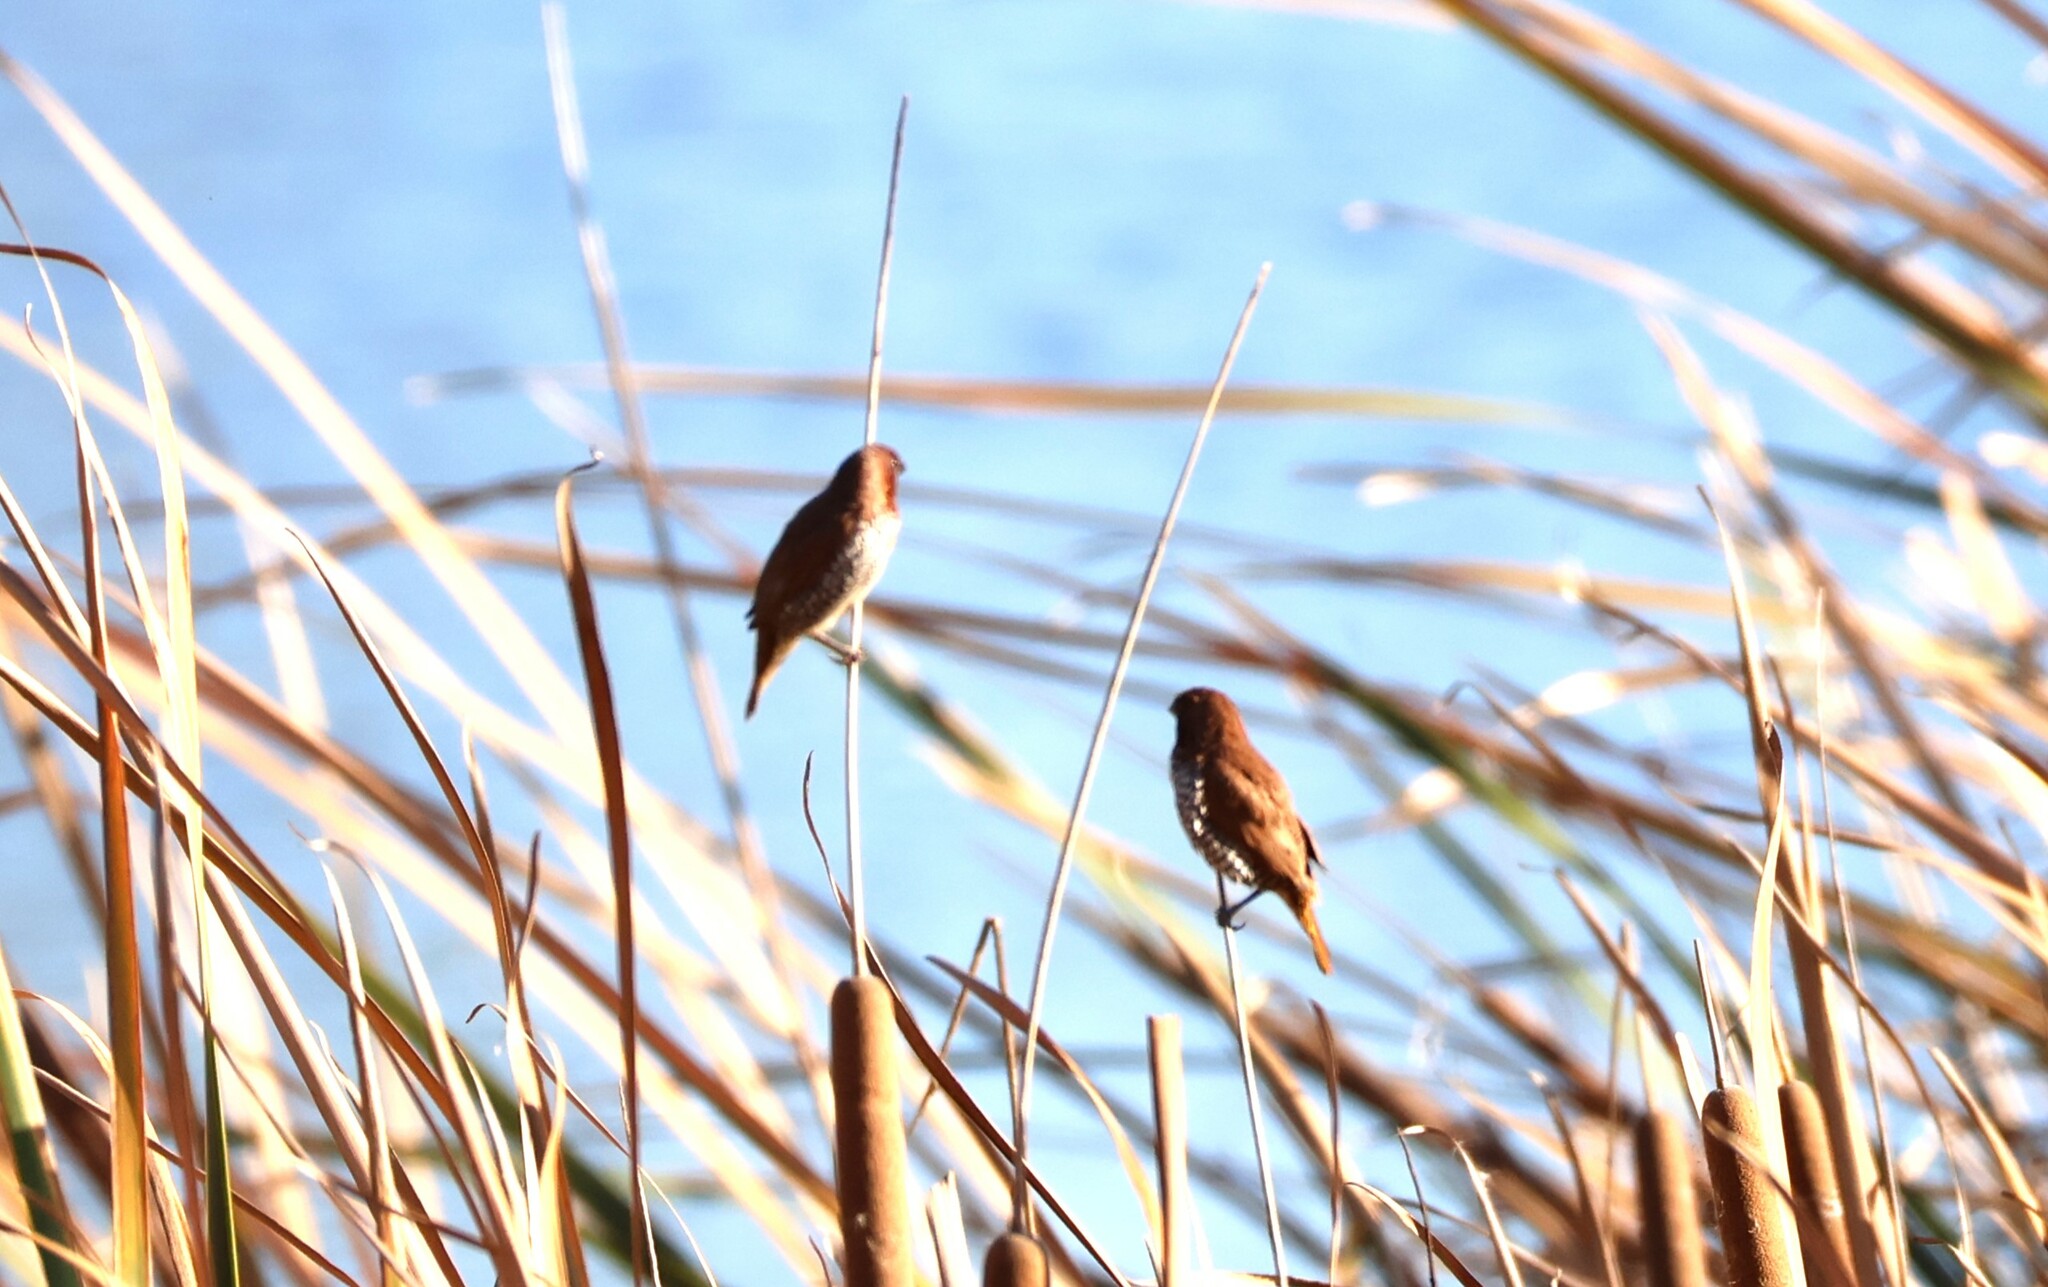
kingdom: Animalia
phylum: Chordata
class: Aves
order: Passeriformes
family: Estrildidae
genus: Lonchura
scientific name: Lonchura punctulata
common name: Scaly-breasted munia
